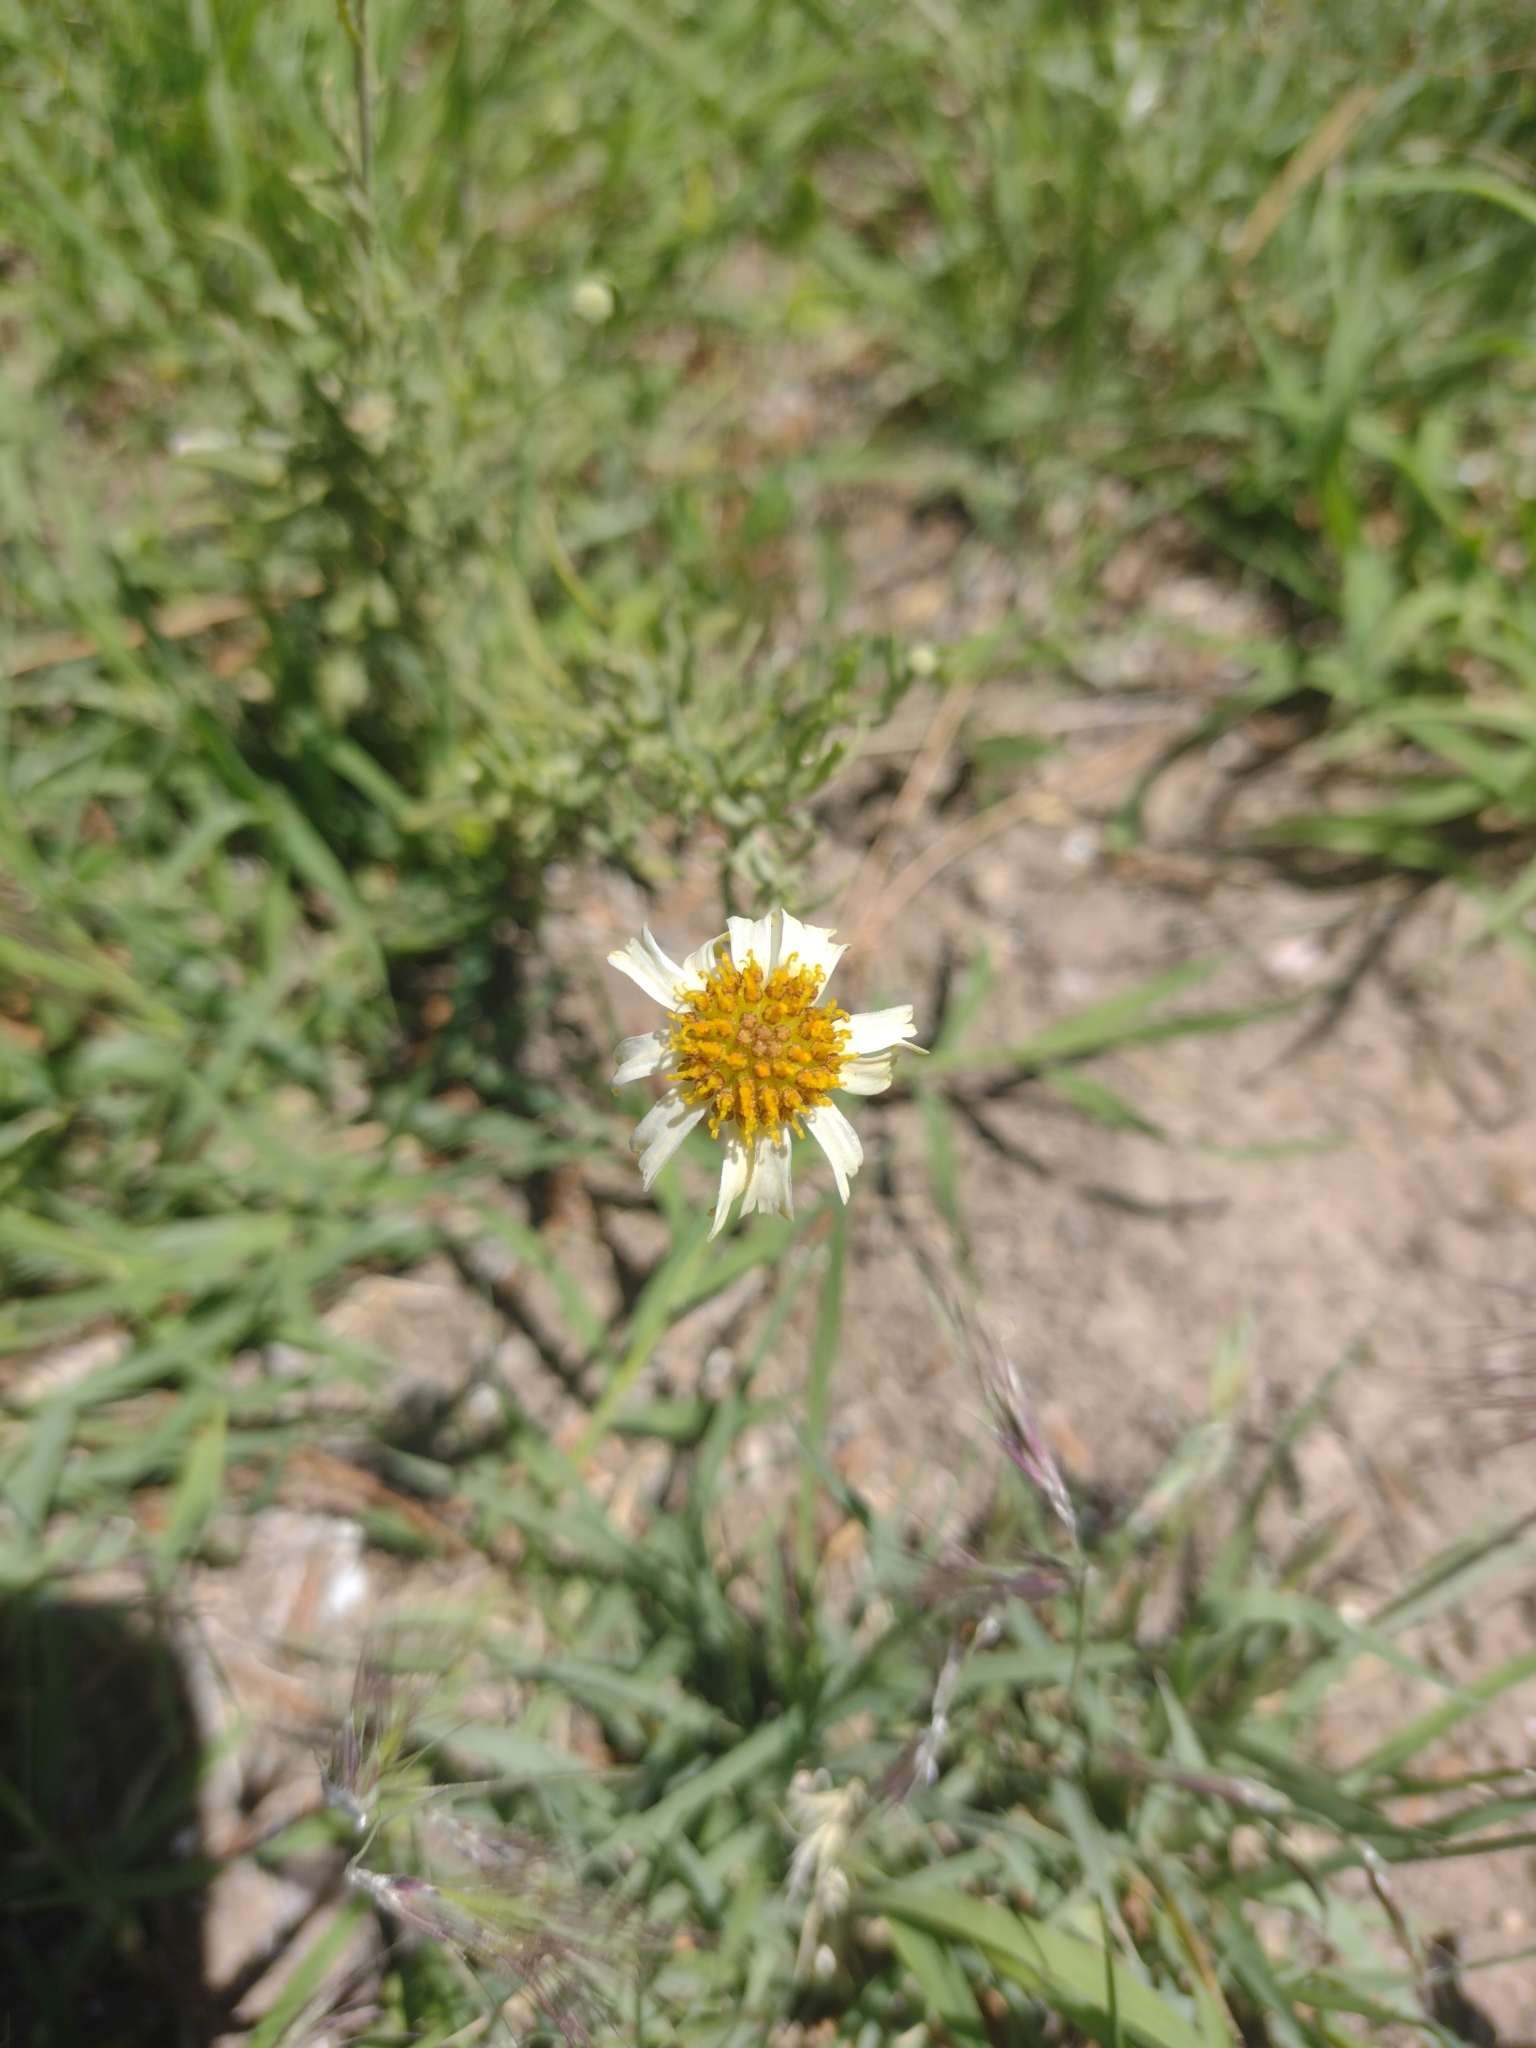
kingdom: Plantae
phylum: Tracheophyta
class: Magnoliopsida
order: Asterales
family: Asteraceae
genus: Helenium
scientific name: Helenium uniflorum
